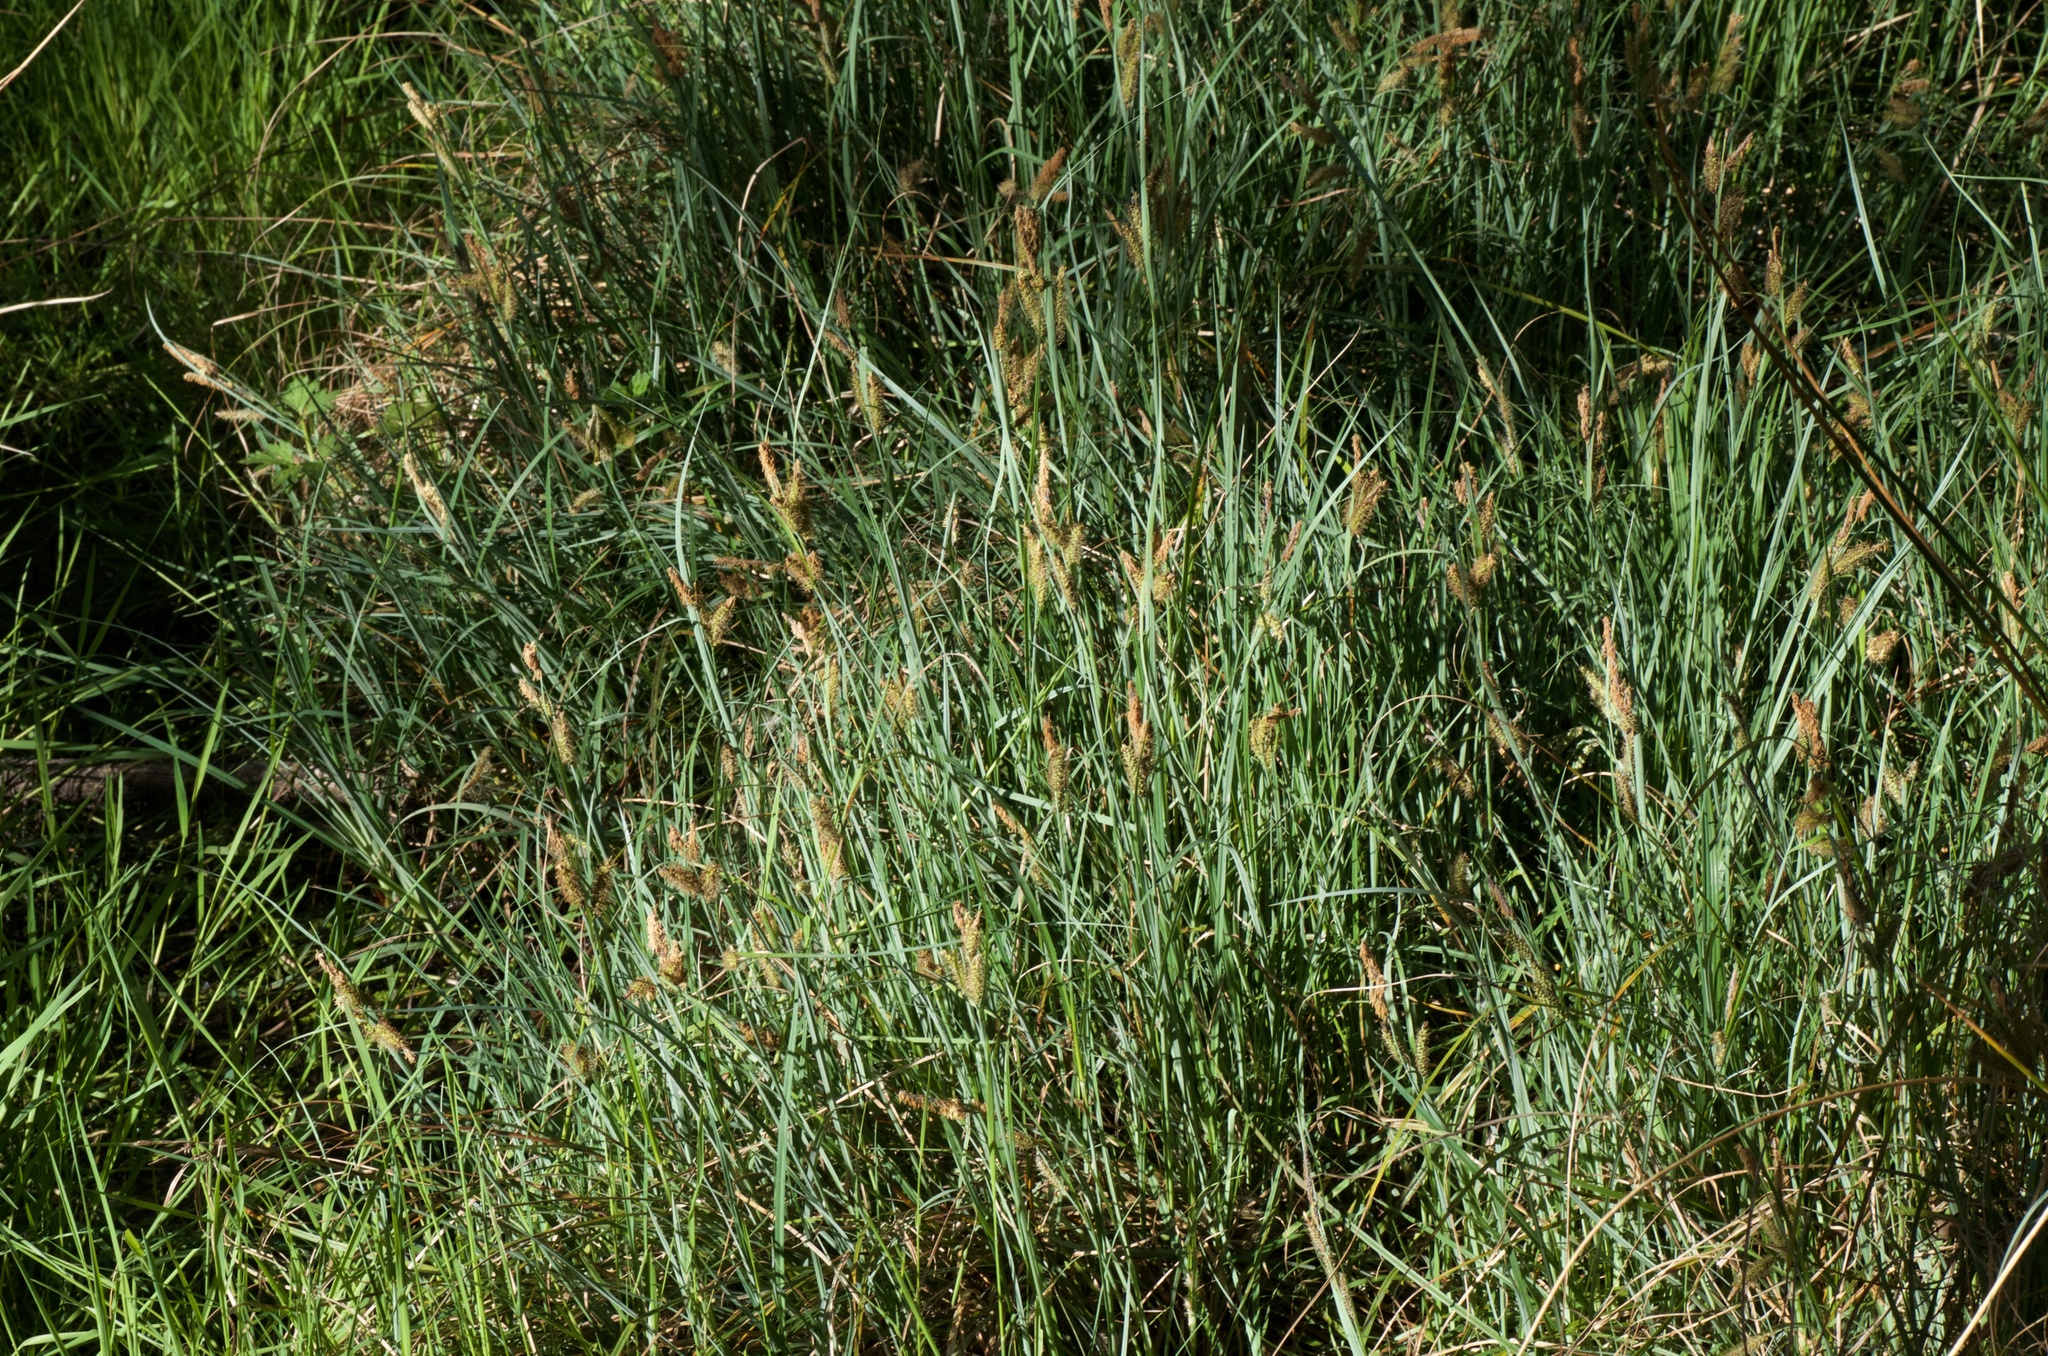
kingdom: Plantae
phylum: Tracheophyta
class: Liliopsida
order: Poales
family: Cyperaceae
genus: Carex
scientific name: Carex flacca
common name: Glaucous sedge
